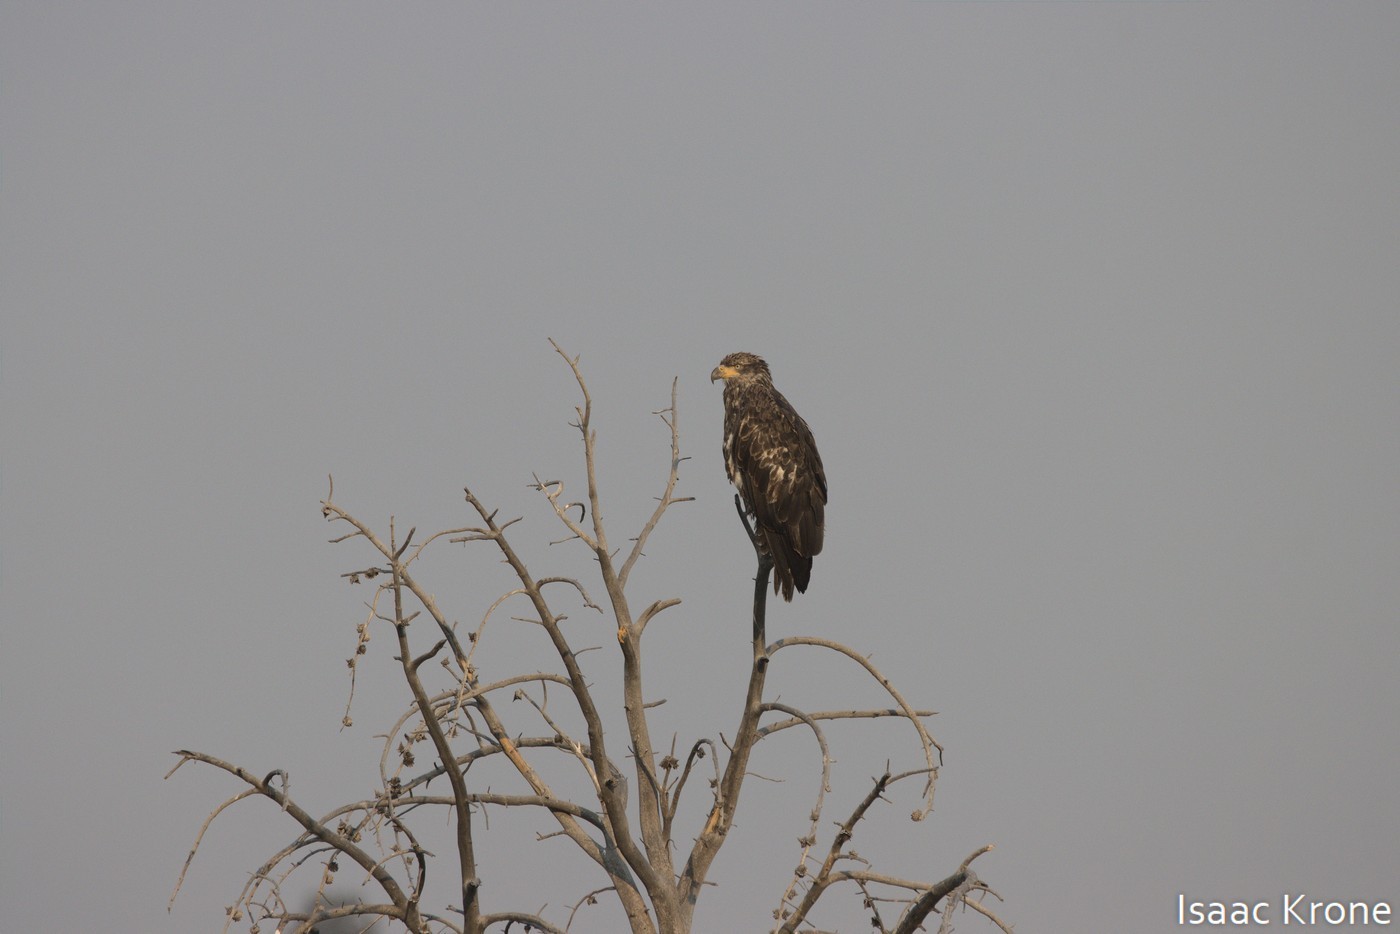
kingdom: Animalia
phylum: Chordata
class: Aves
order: Accipitriformes
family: Accipitridae
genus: Haliaeetus
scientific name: Haliaeetus leucocephalus
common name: Bald eagle
